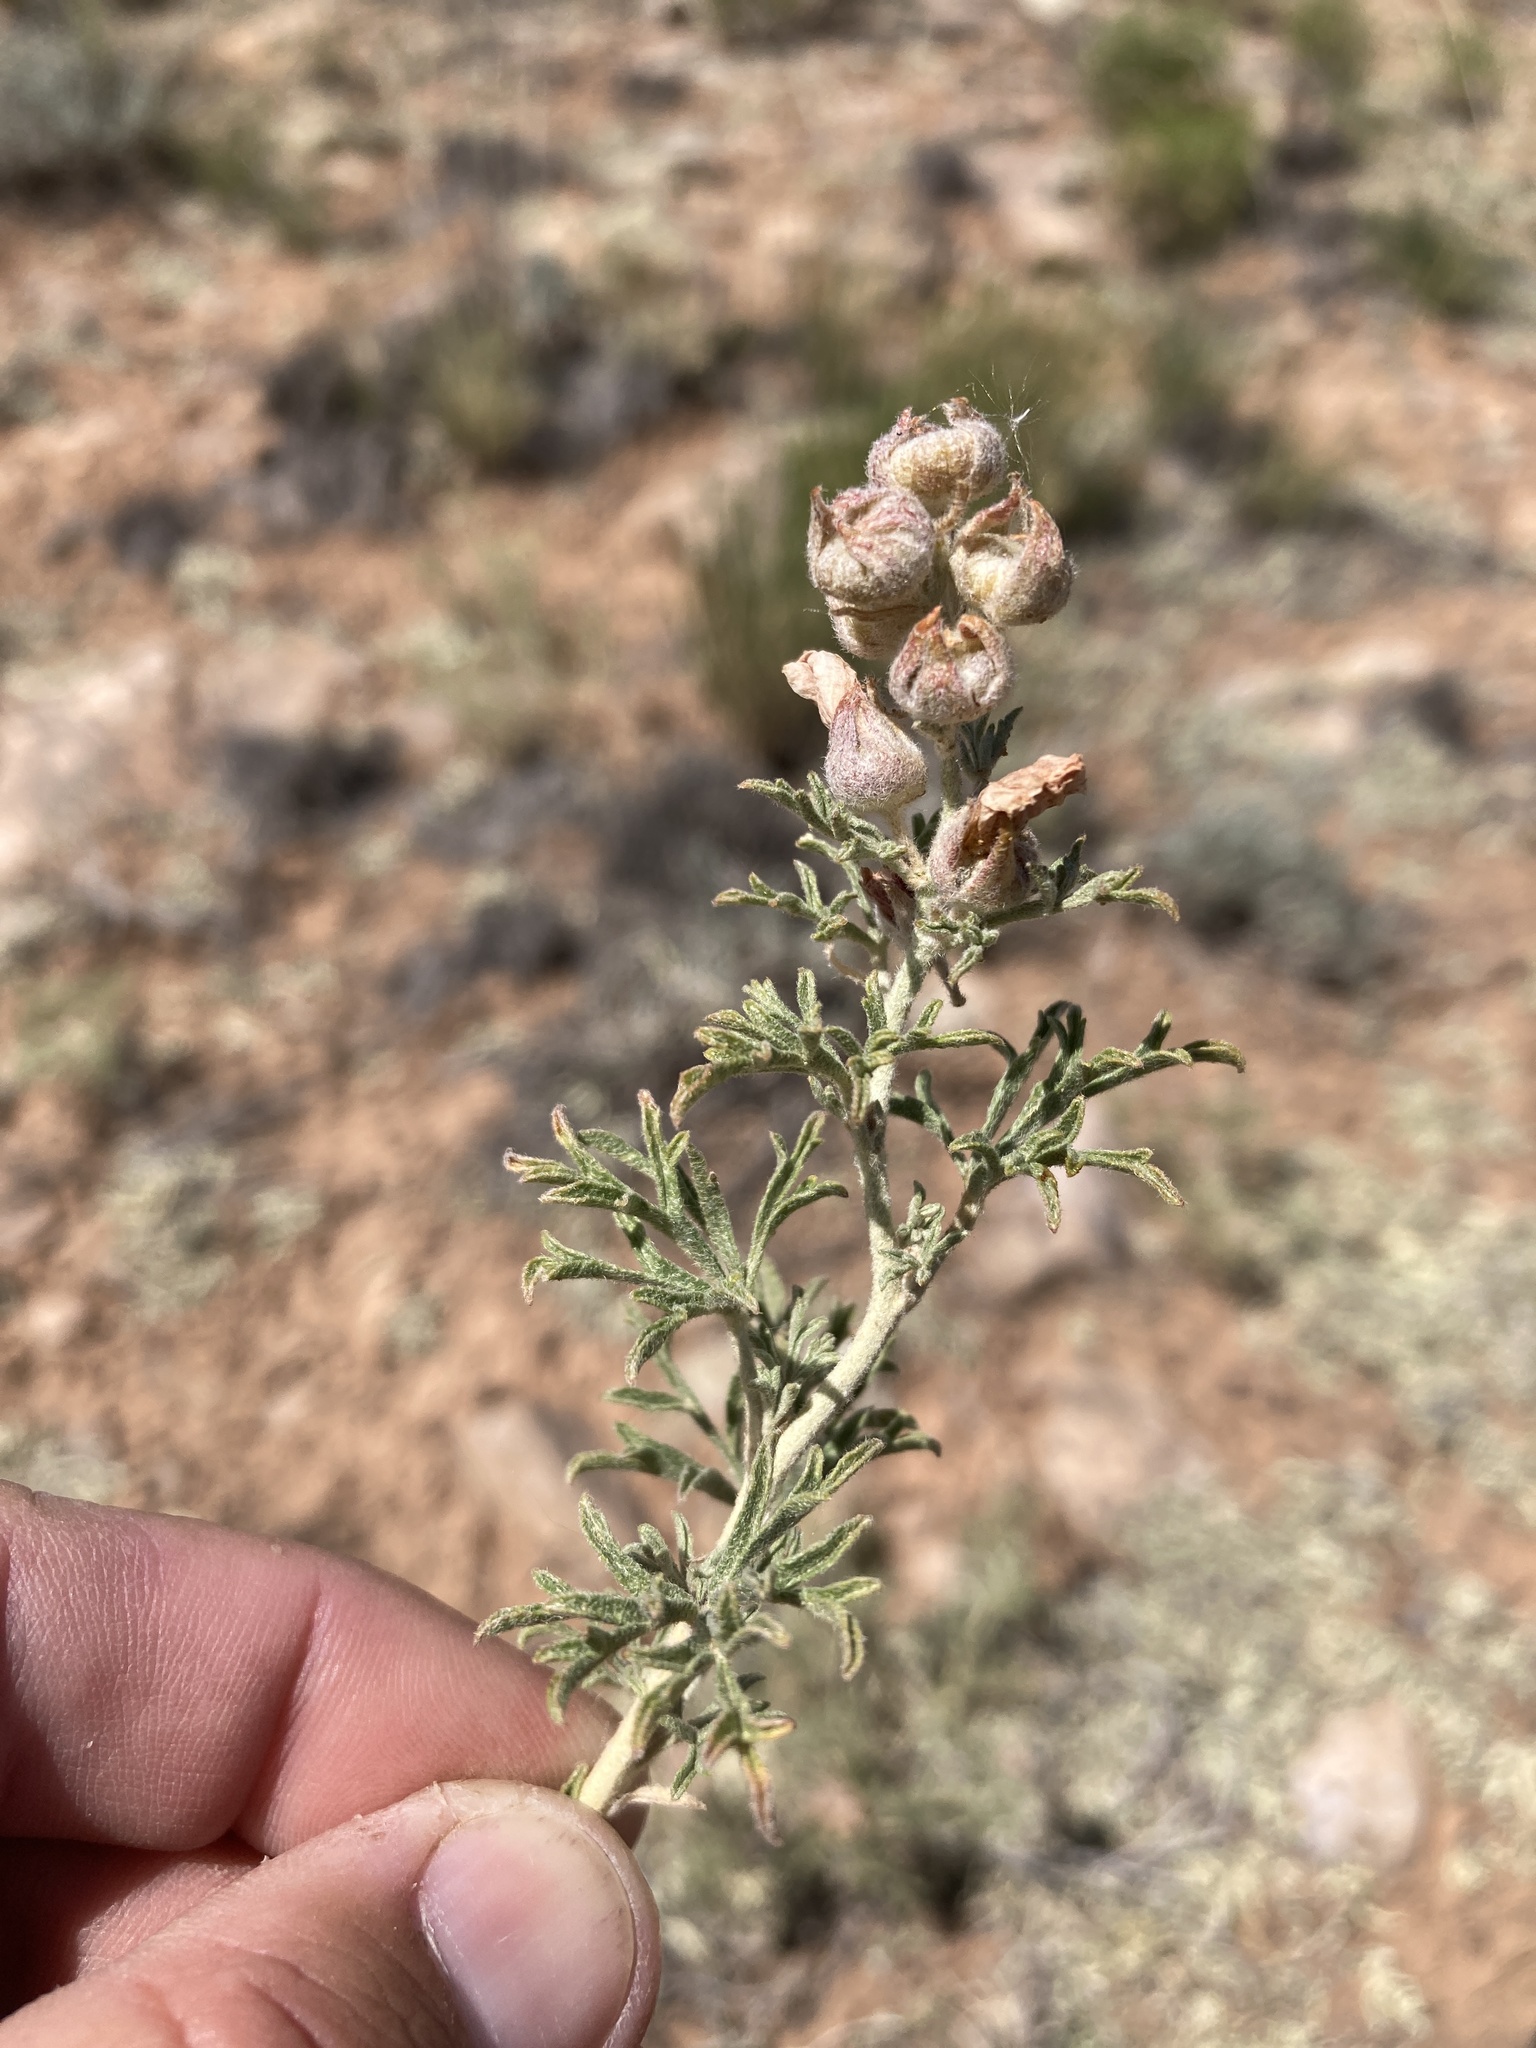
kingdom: Plantae
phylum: Tracheophyta
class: Magnoliopsida
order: Malvales
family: Malvaceae
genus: Sphaeralcea
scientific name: Sphaeralcea coccinea
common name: Moss-rose
